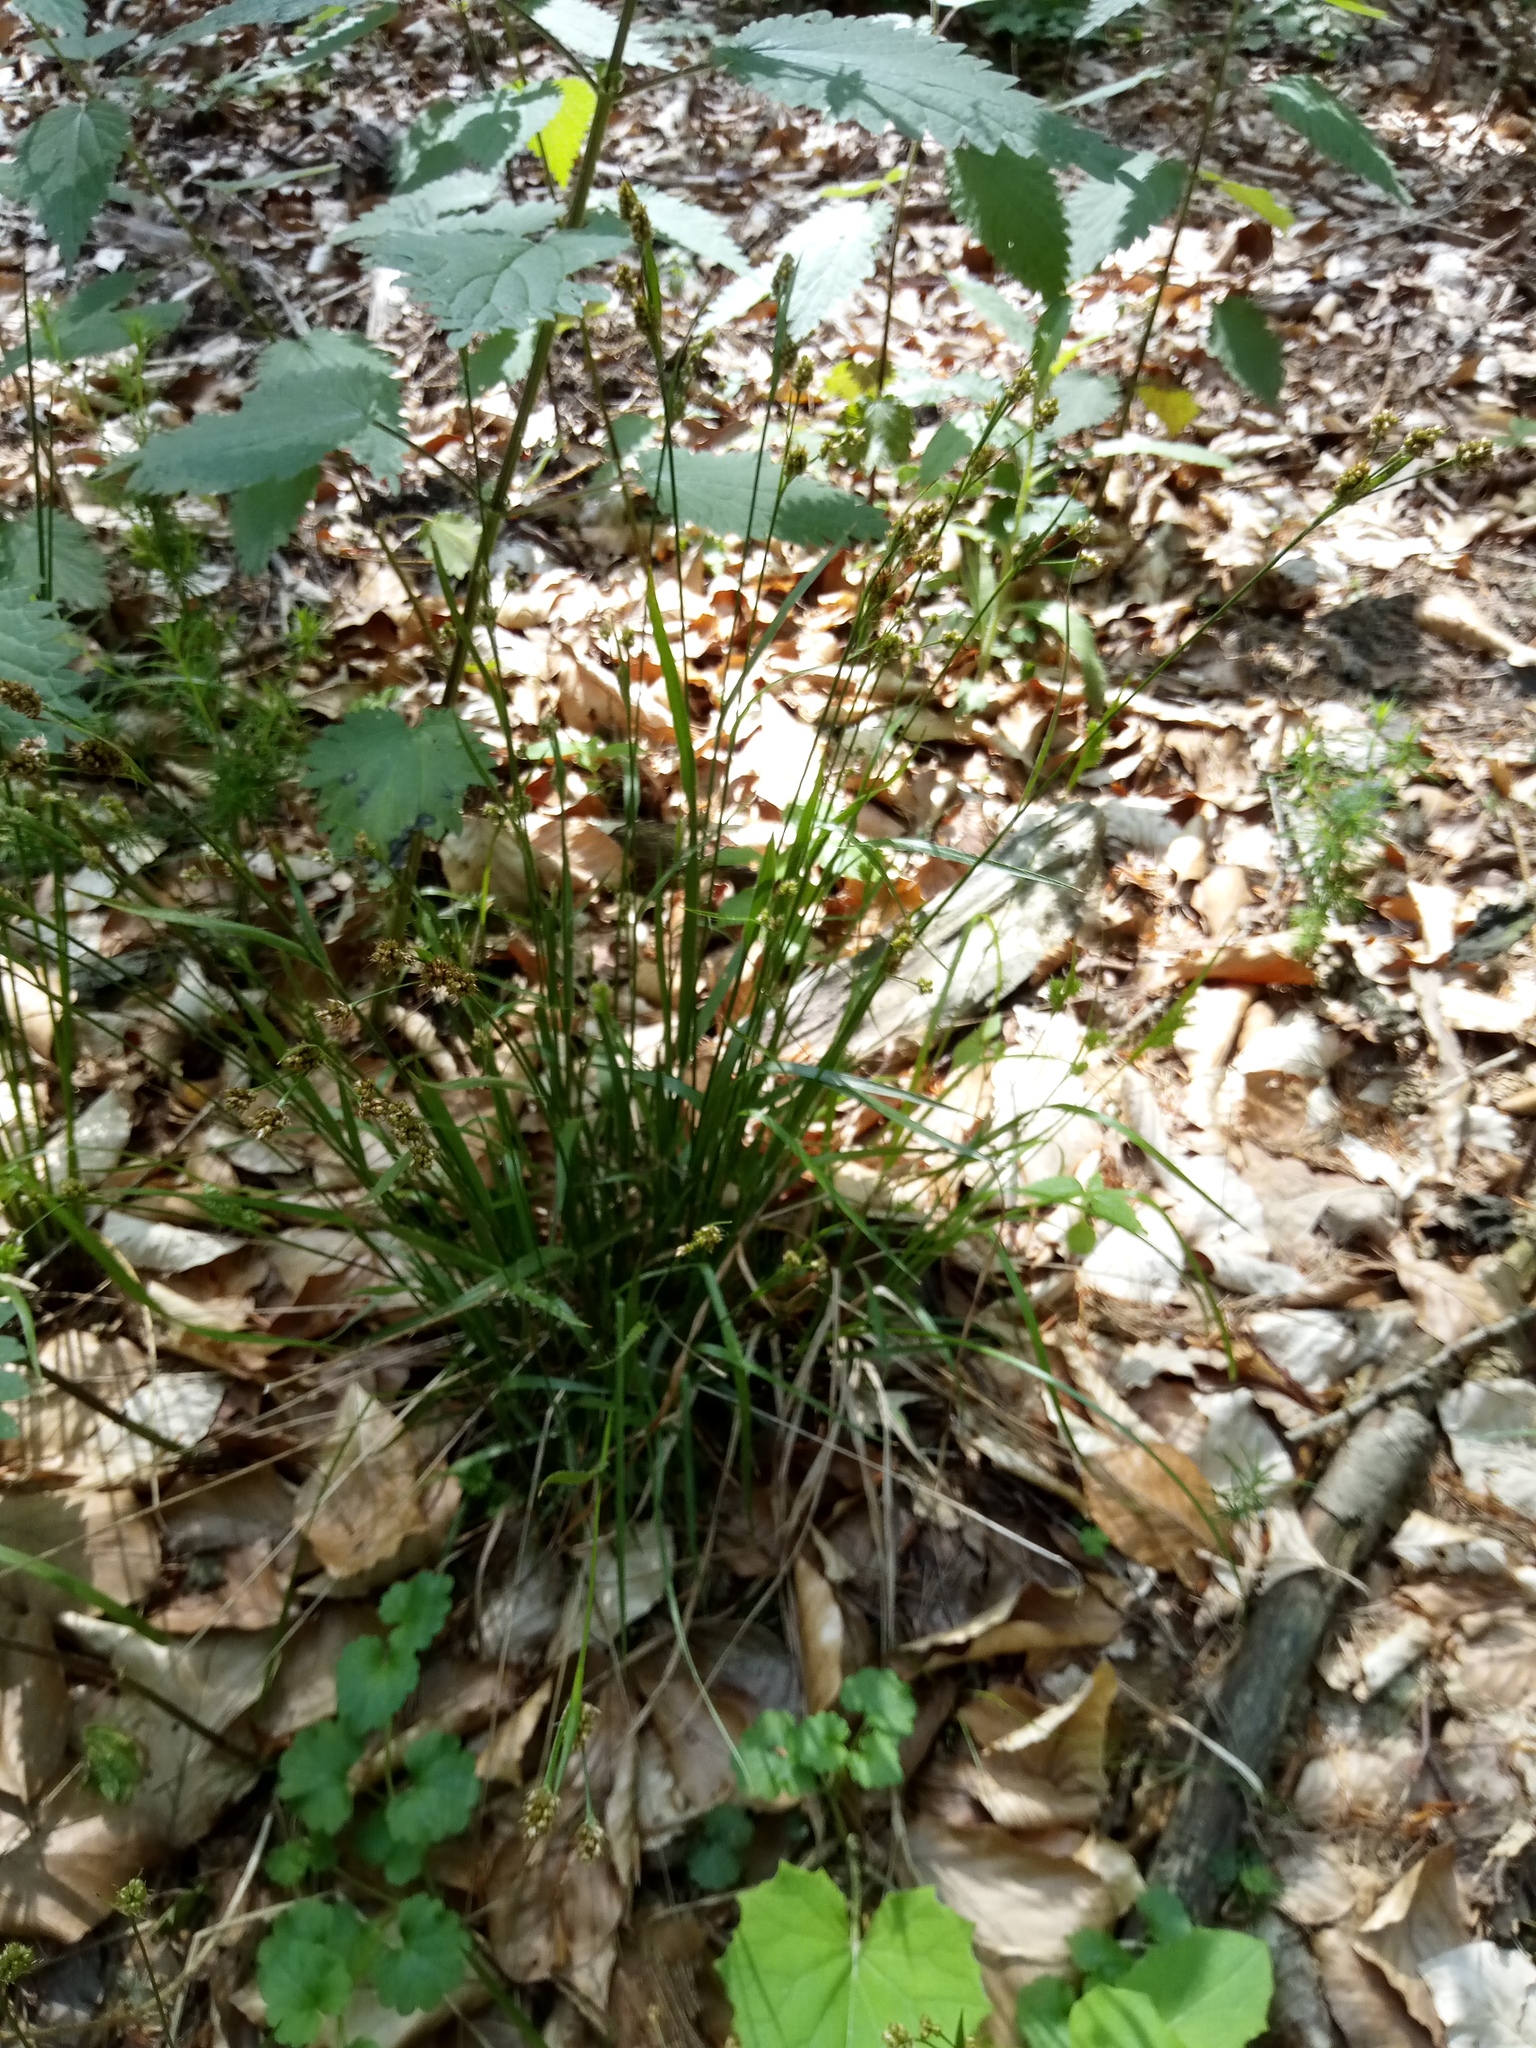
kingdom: Plantae
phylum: Tracheophyta
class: Liliopsida
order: Poales
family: Cyperaceae
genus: Carex
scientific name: Carex pallescens
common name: Pale sedge
